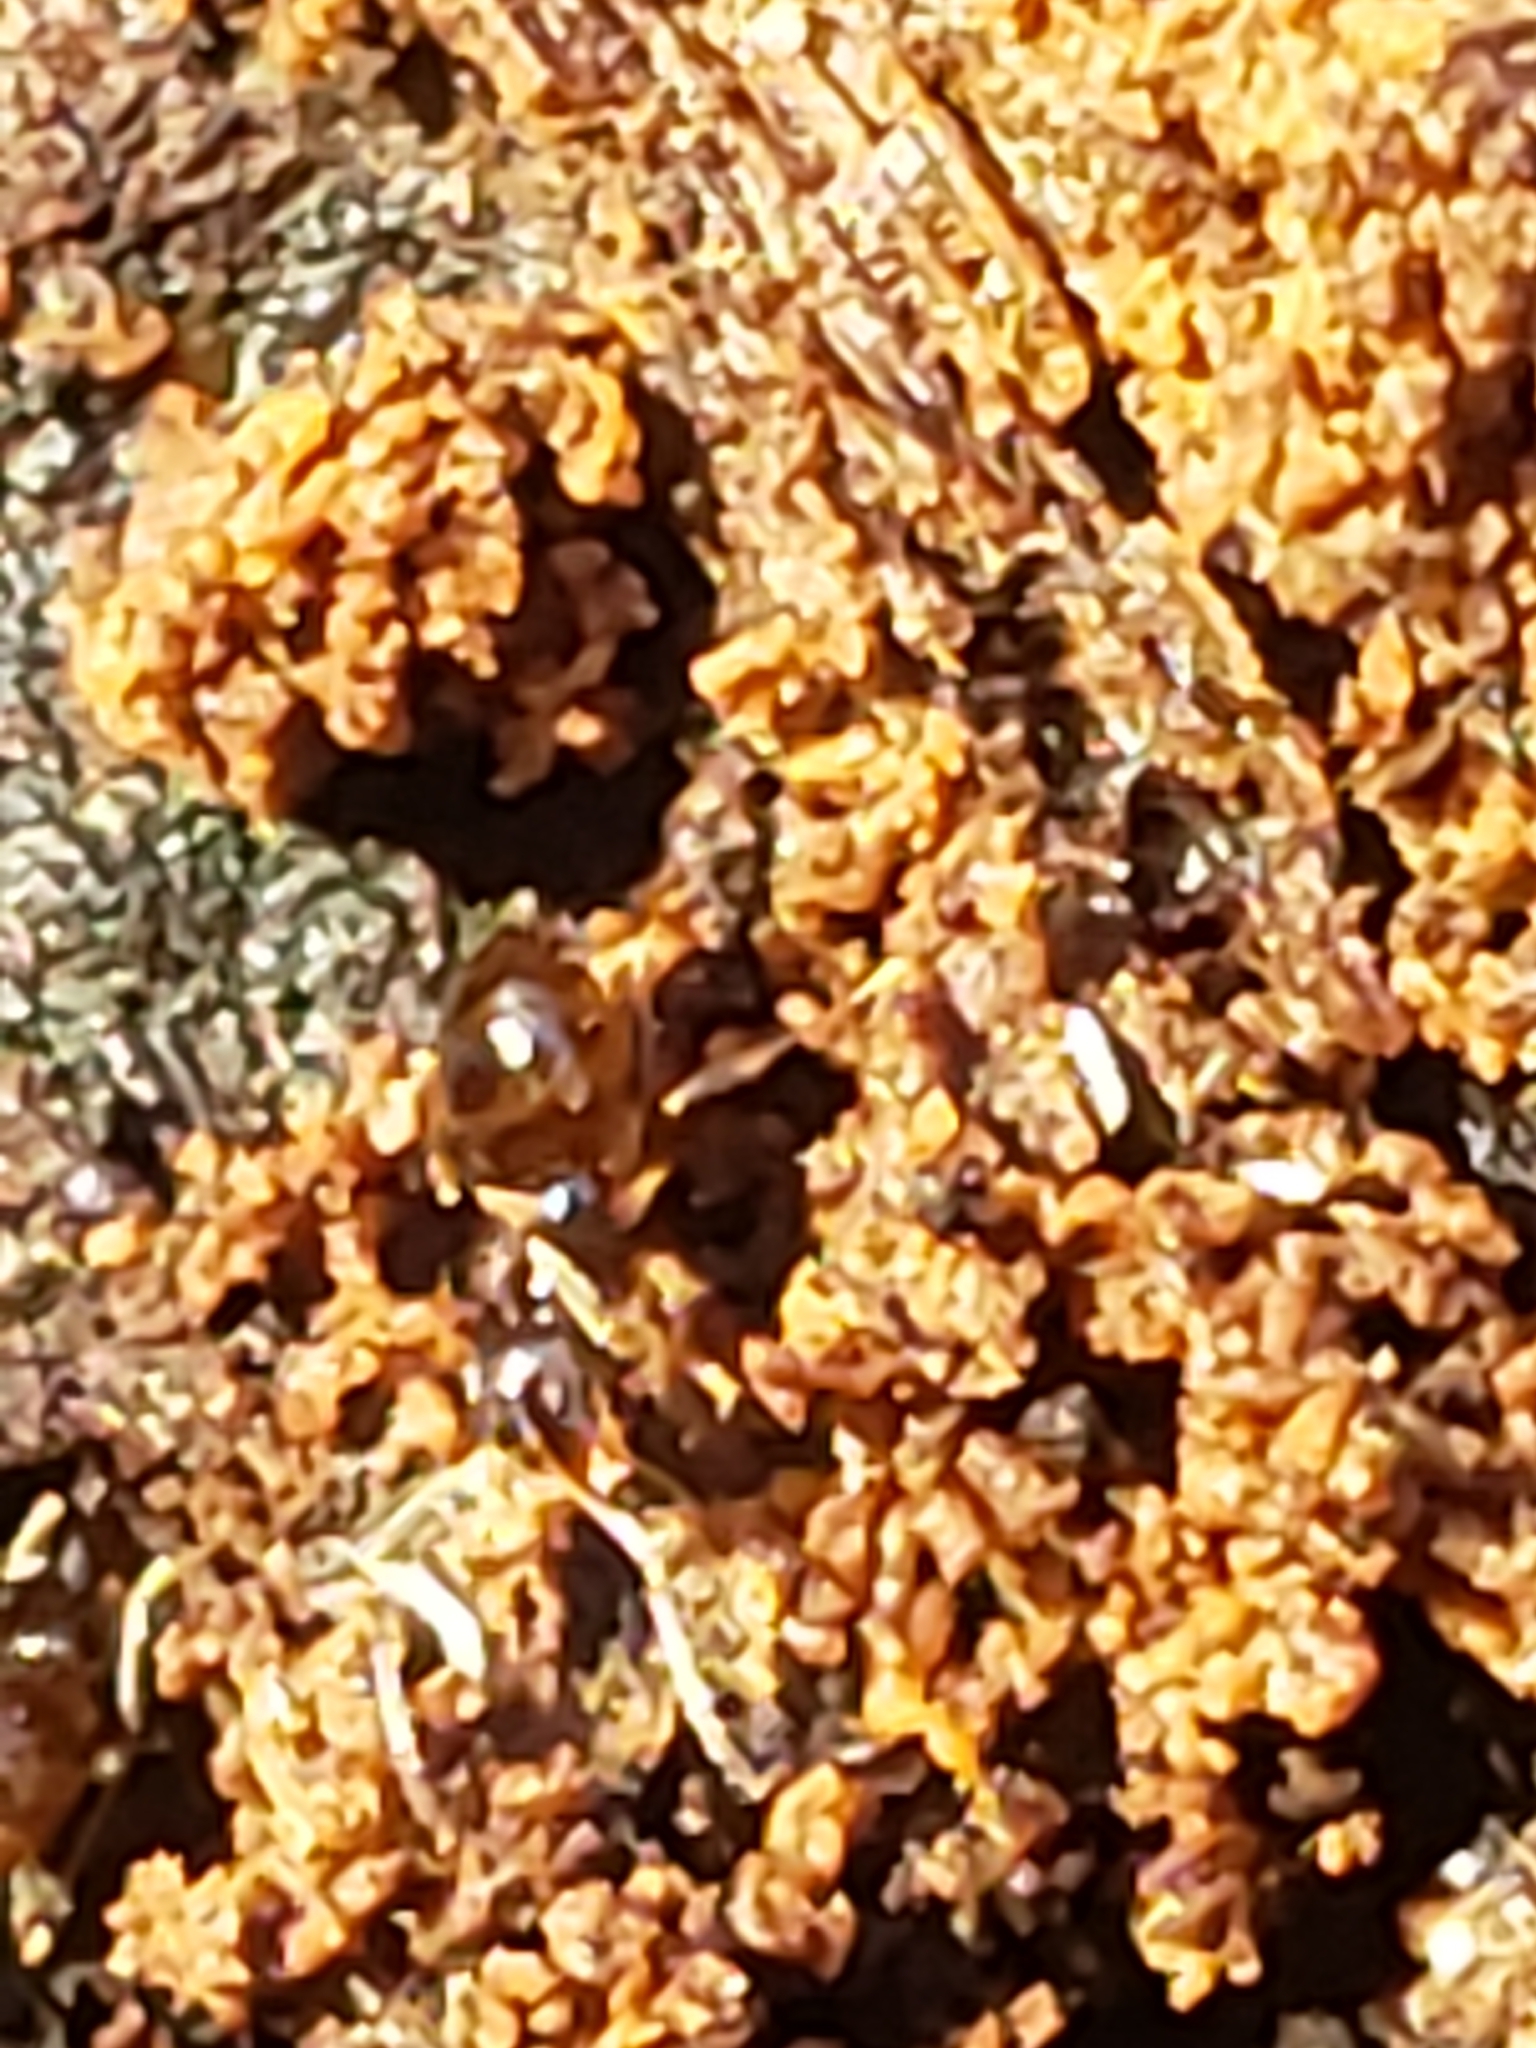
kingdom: Animalia
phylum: Arthropoda
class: Insecta
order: Hymenoptera
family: Formicidae
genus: Prenolepis
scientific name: Prenolepis imparis
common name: Small honey ant
